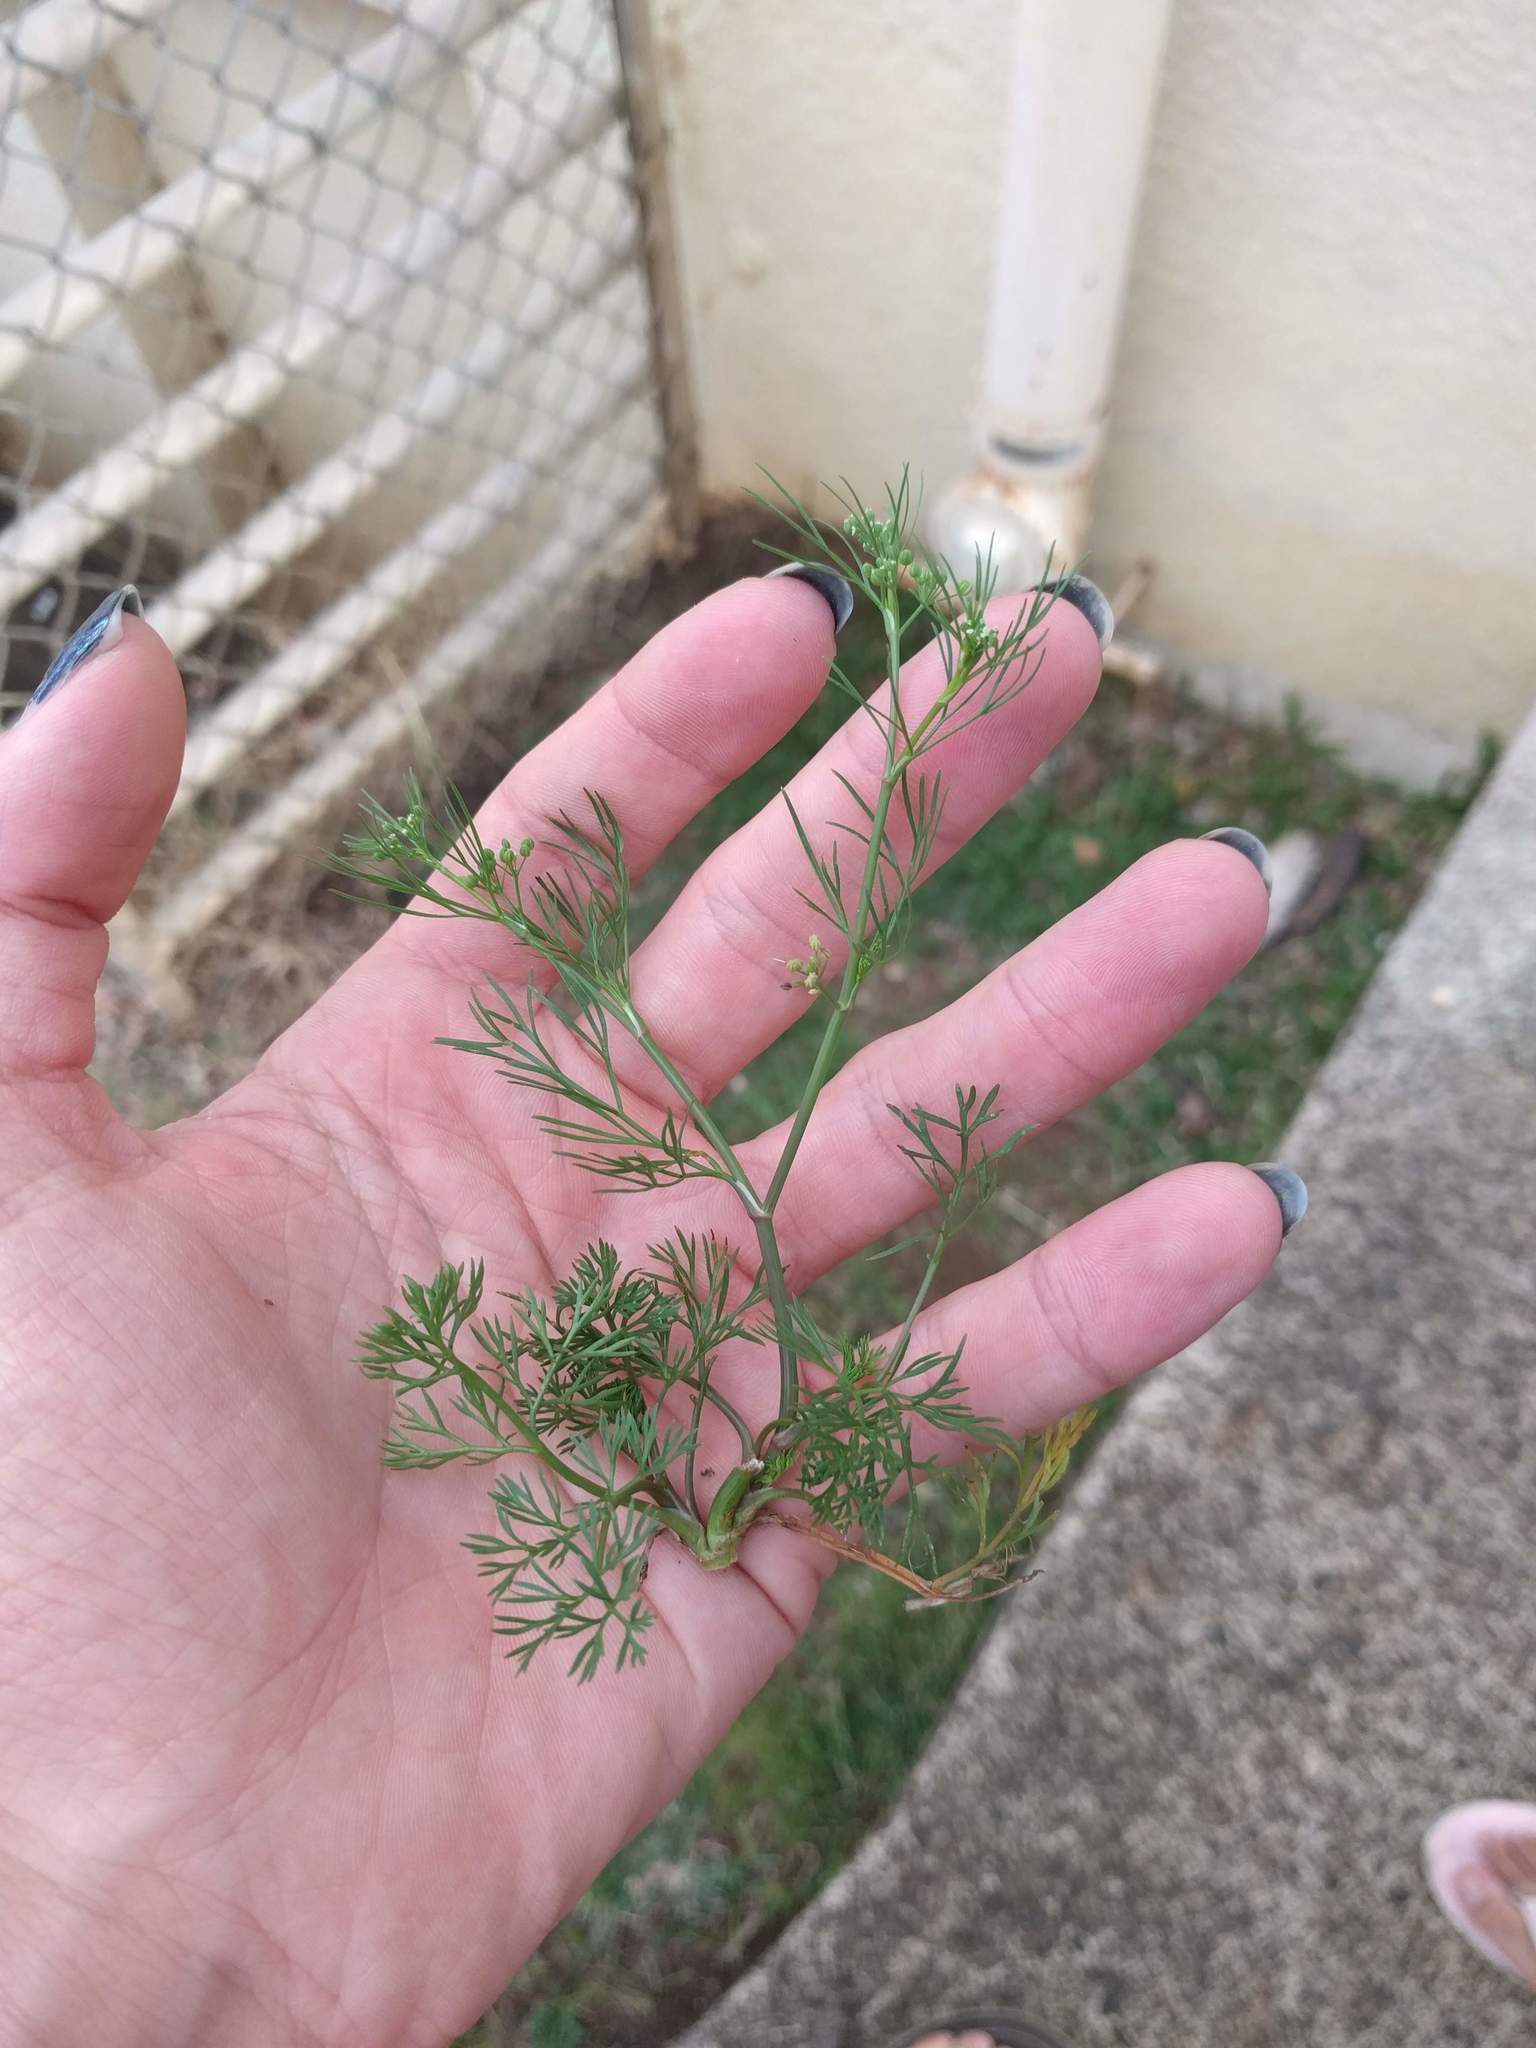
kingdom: Plantae
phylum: Tracheophyta
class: Magnoliopsida
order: Apiales
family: Apiaceae
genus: Cyclospermum
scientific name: Cyclospermum leptophyllum
